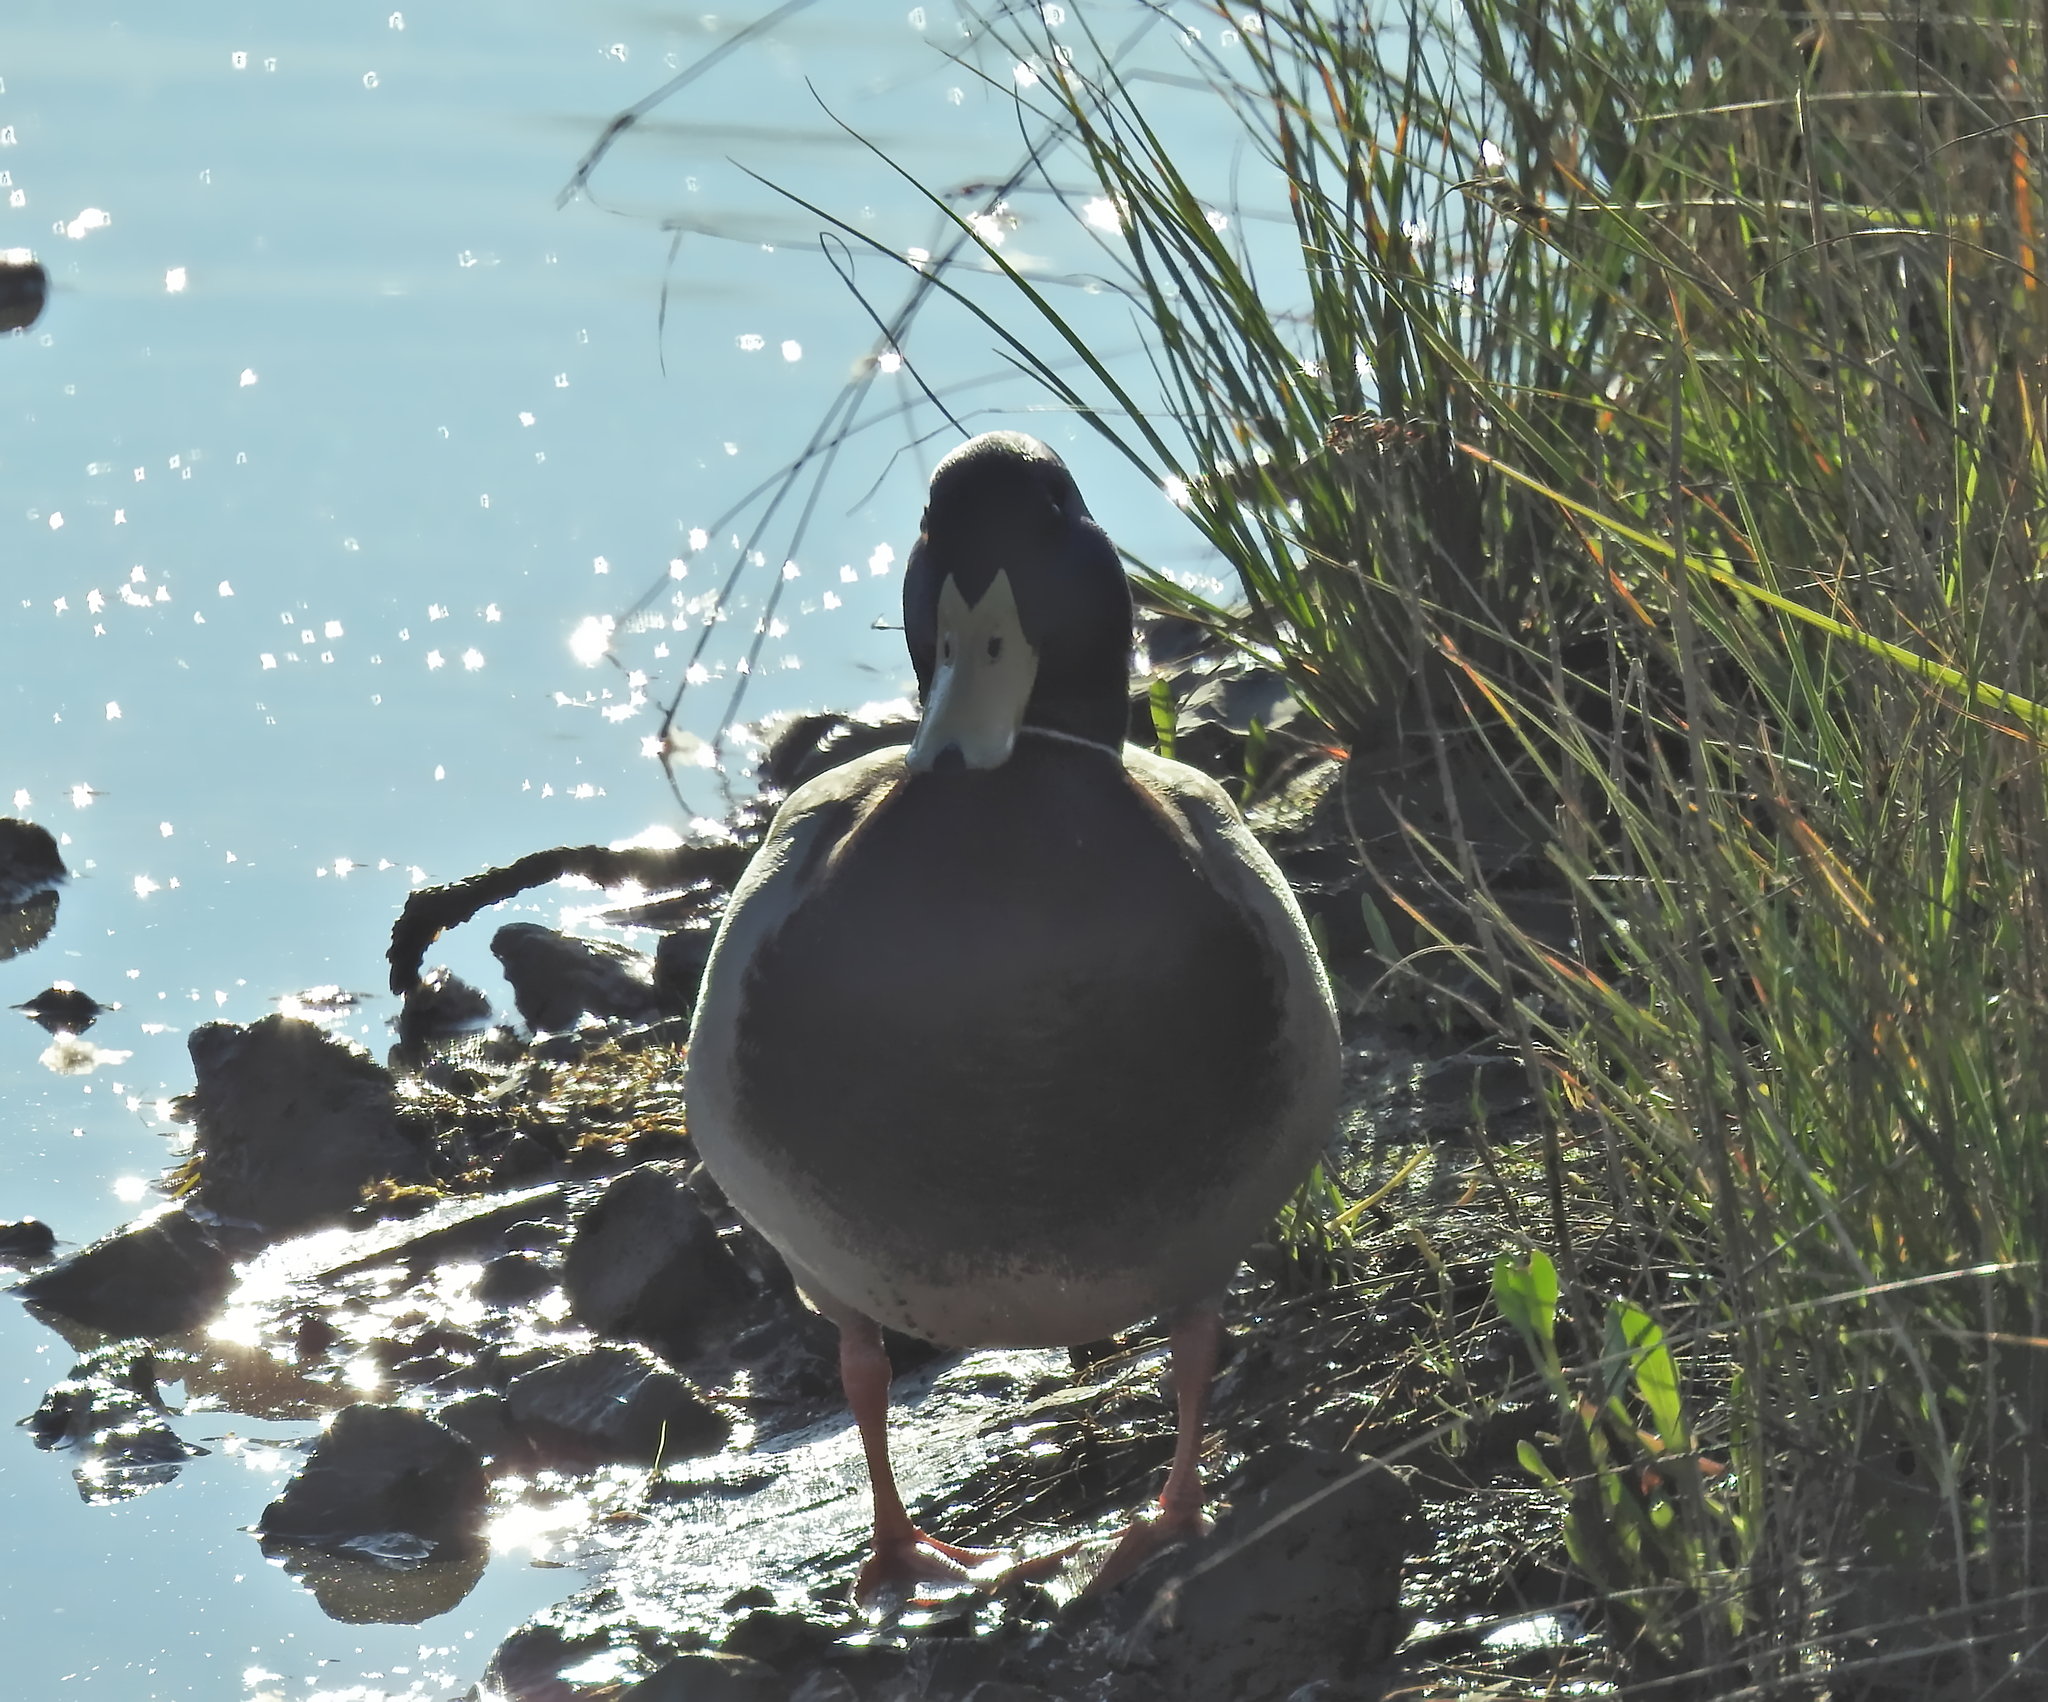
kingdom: Animalia
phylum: Chordata
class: Aves
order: Anseriformes
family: Anatidae
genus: Anas
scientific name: Anas platyrhynchos
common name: Mallard
